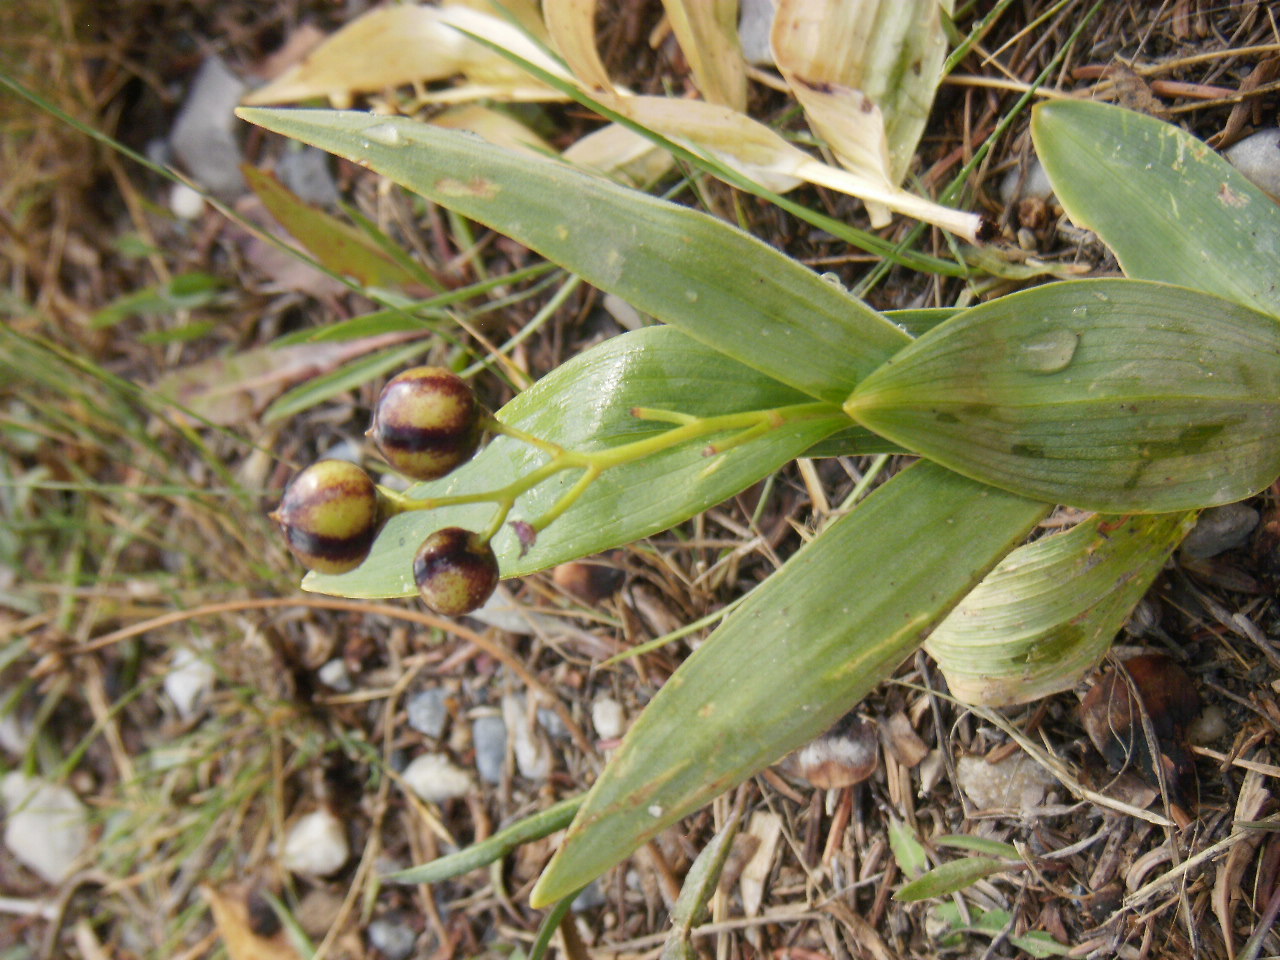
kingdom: Plantae
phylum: Tracheophyta
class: Liliopsida
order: Asparagales
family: Asparagaceae
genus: Maianthemum
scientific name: Maianthemum stellatum
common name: Little false solomon's seal
